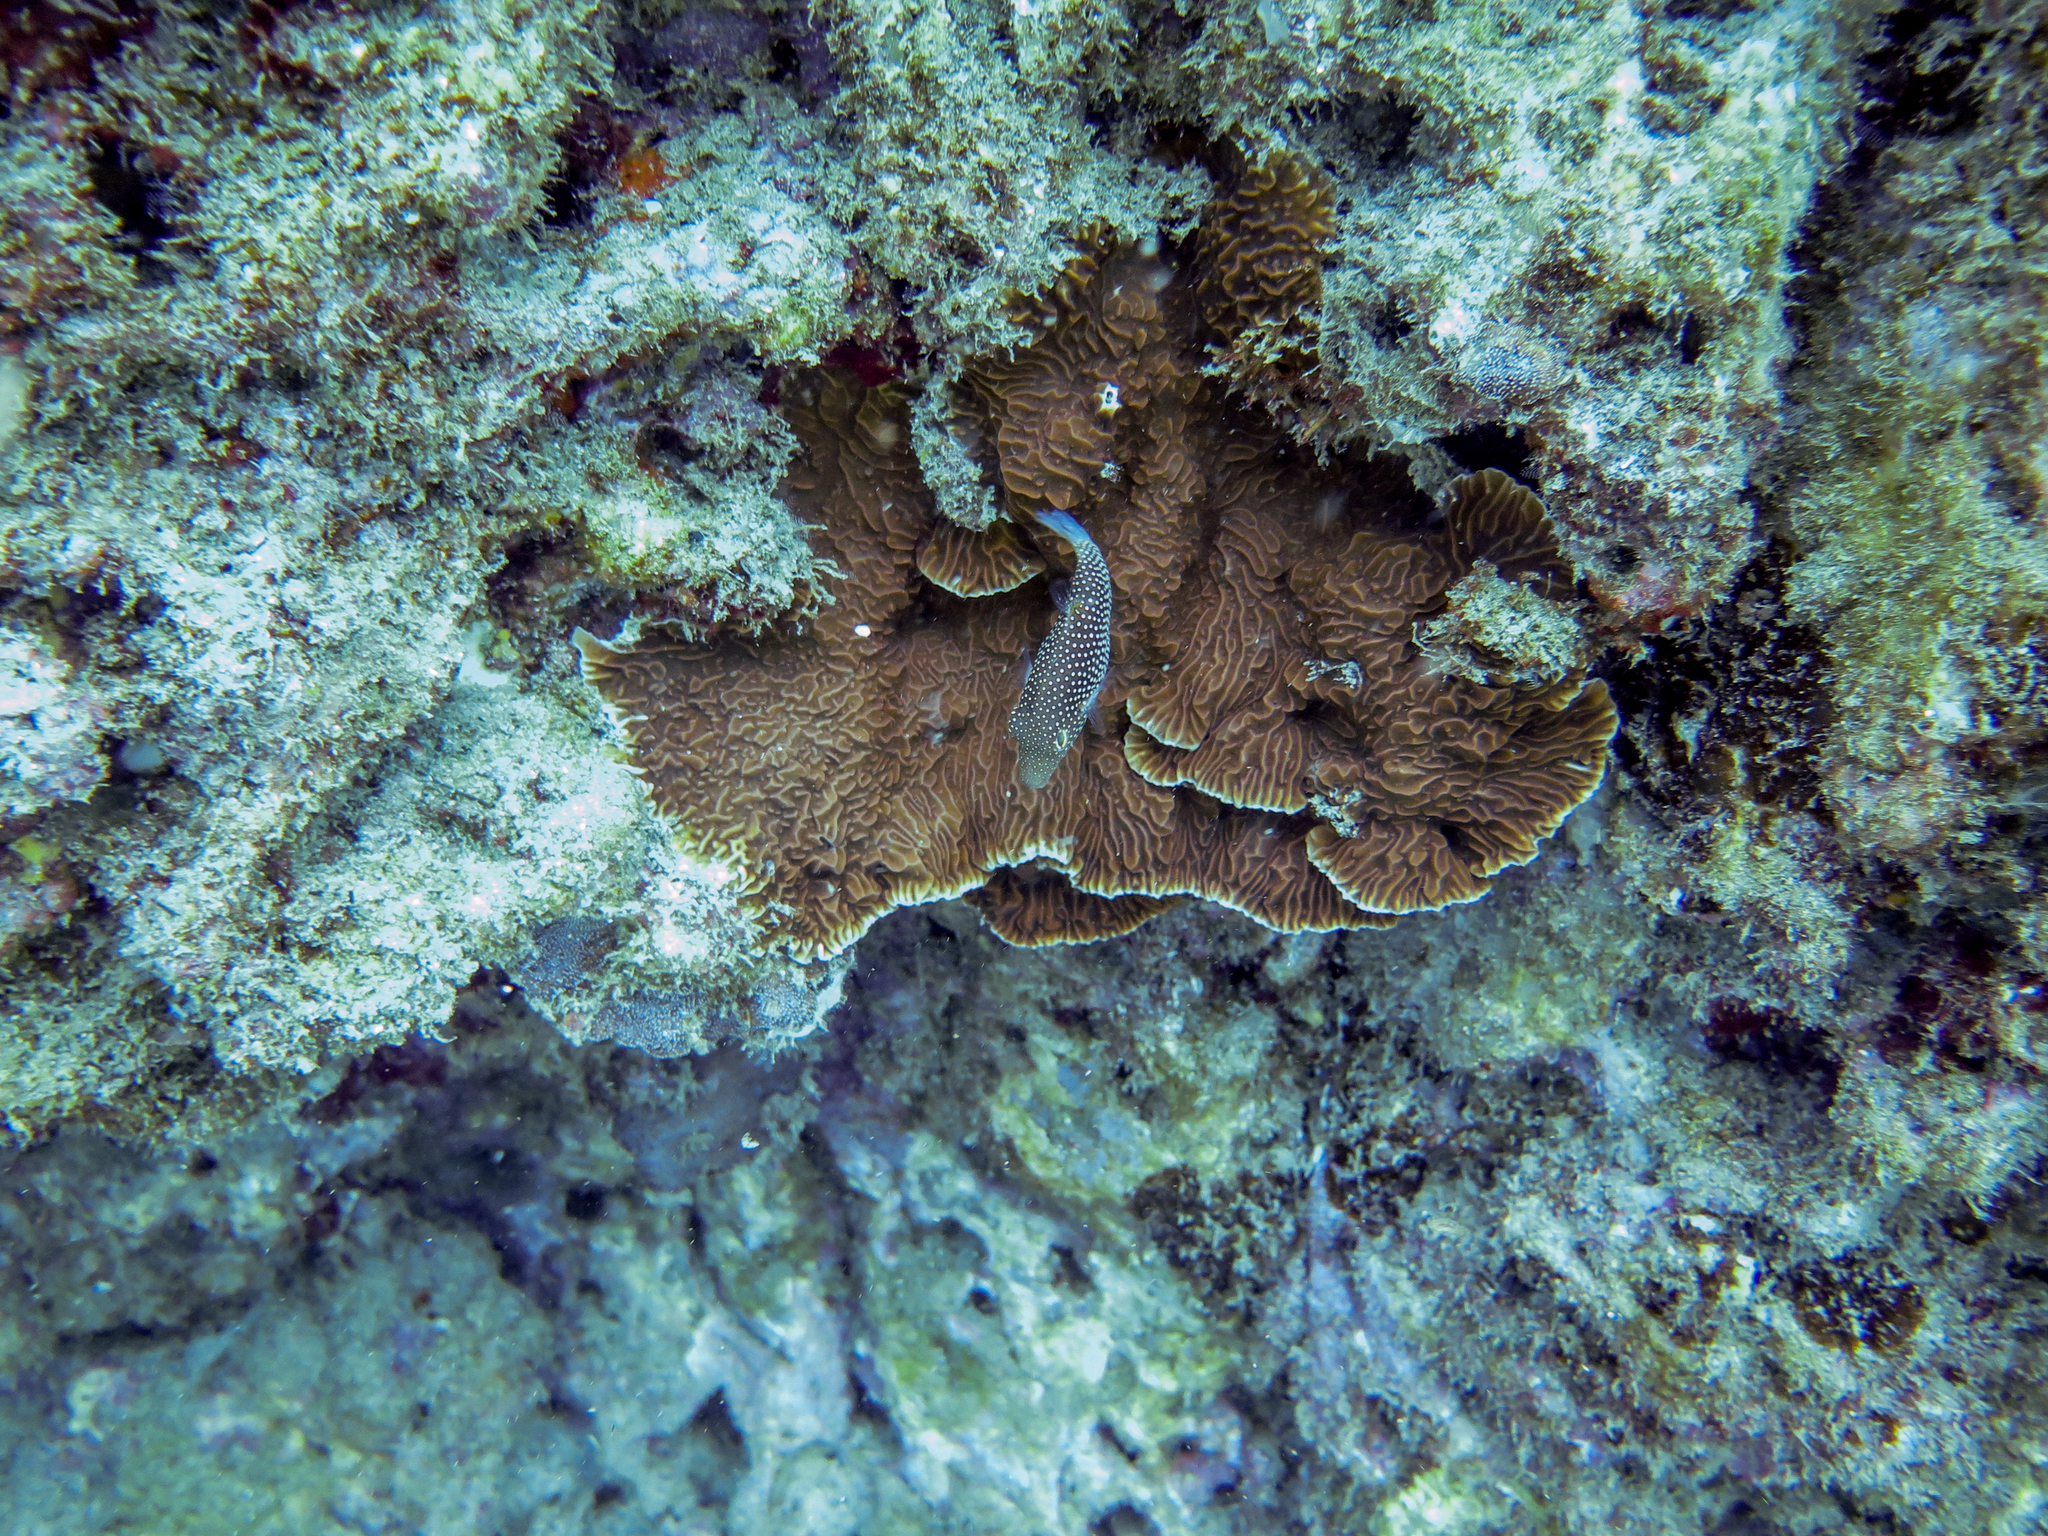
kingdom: Animalia
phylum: Chordata
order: Tetraodontiformes
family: Tetraodontidae
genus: Canthigaster
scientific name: Canthigaster punctatissima
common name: Spotted sharpnose puffer
